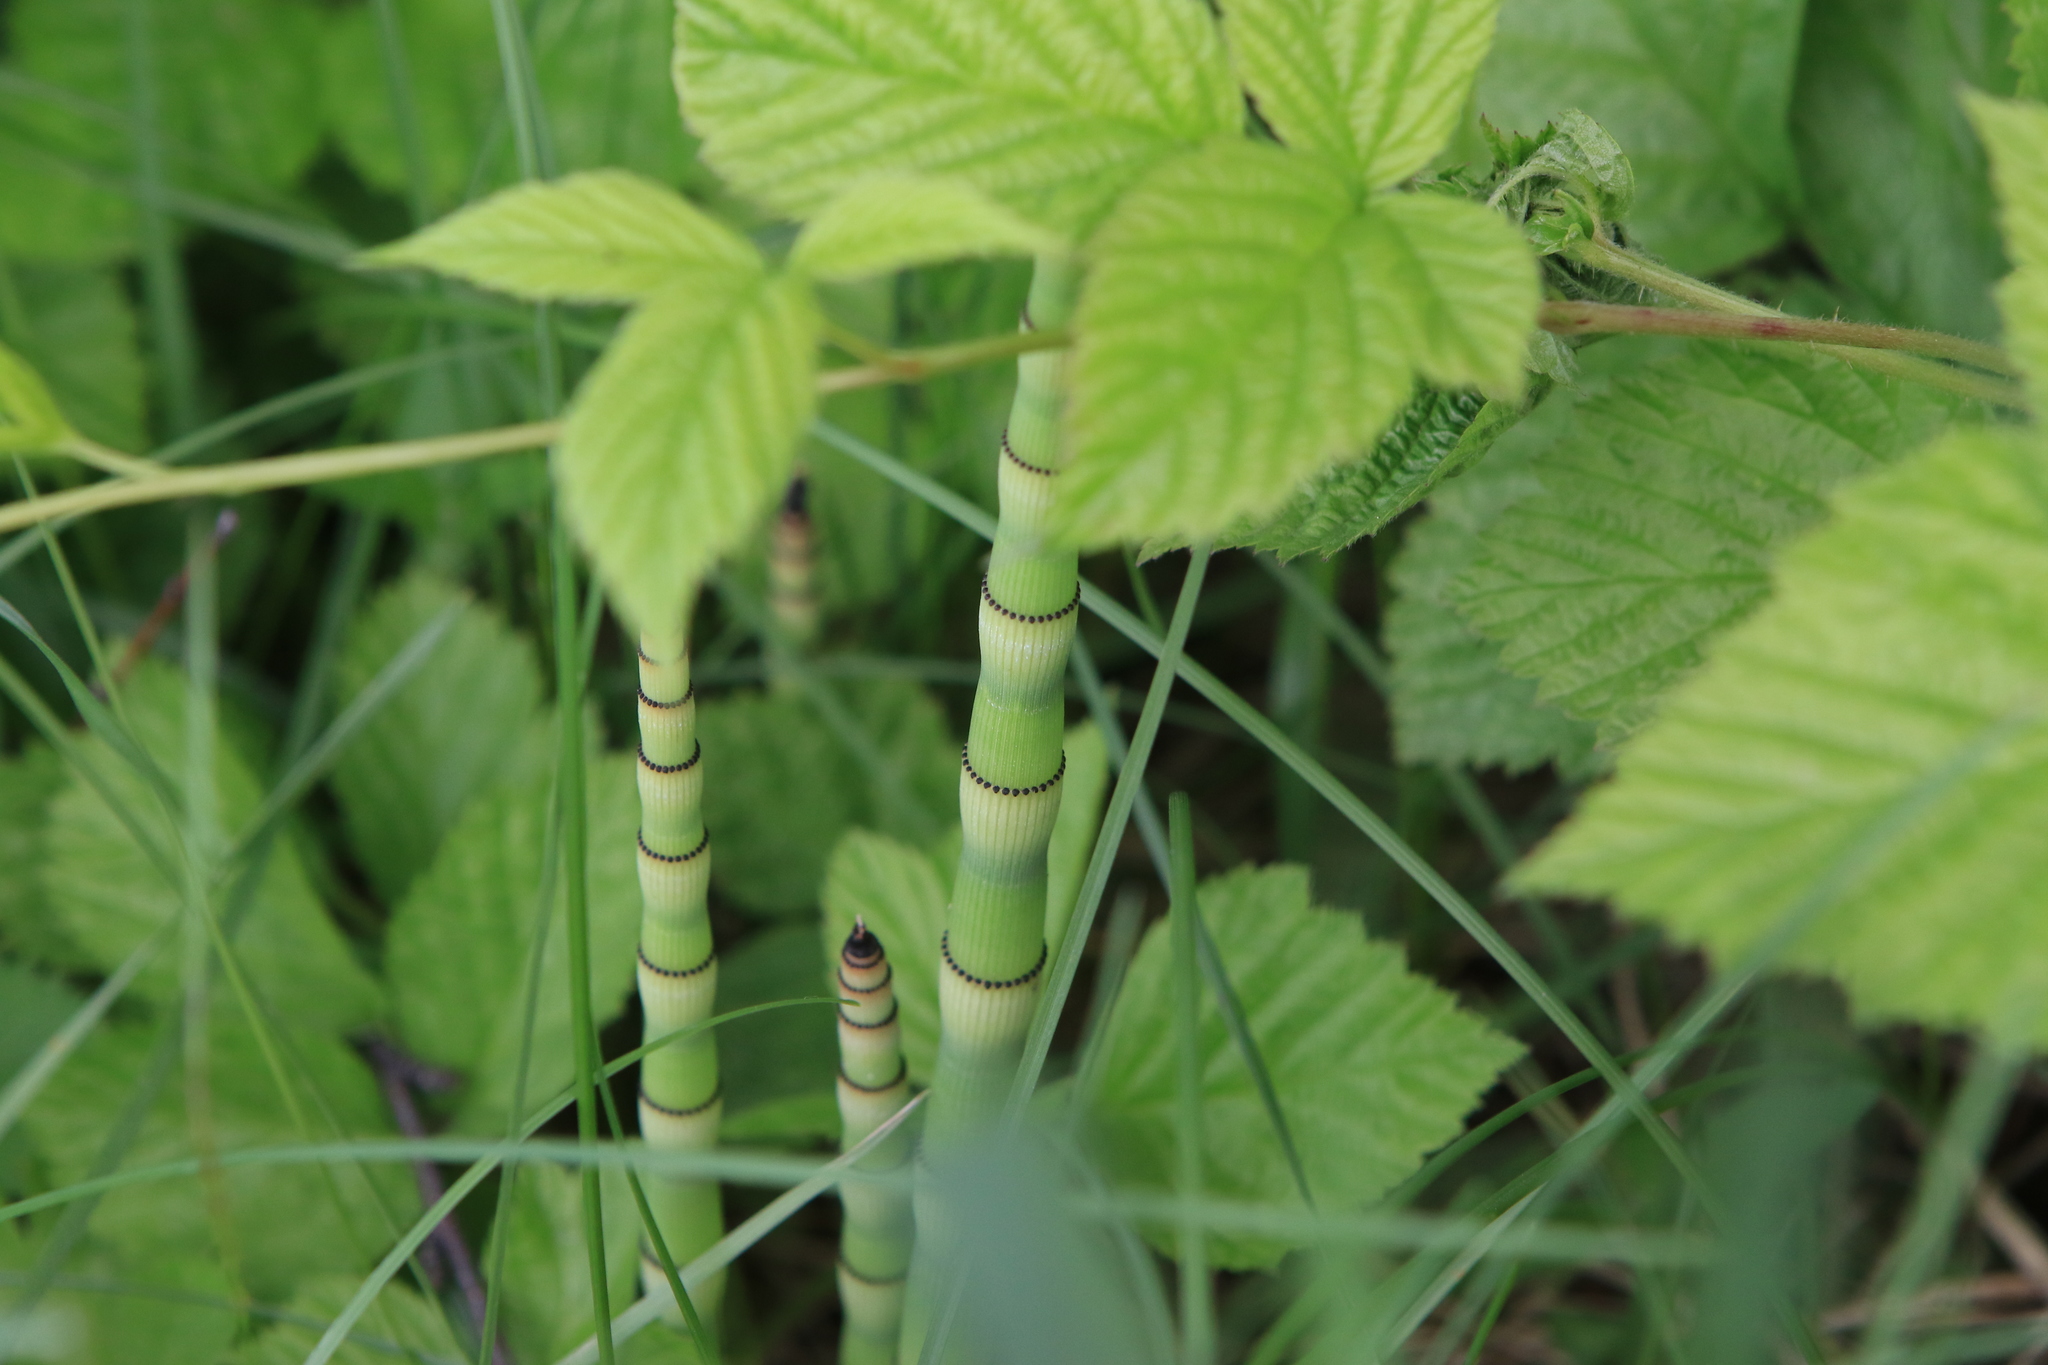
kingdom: Plantae
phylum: Tracheophyta
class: Polypodiopsida
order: Equisetales
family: Equisetaceae
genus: Equisetum
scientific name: Equisetum hyemale
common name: Rough horsetail
